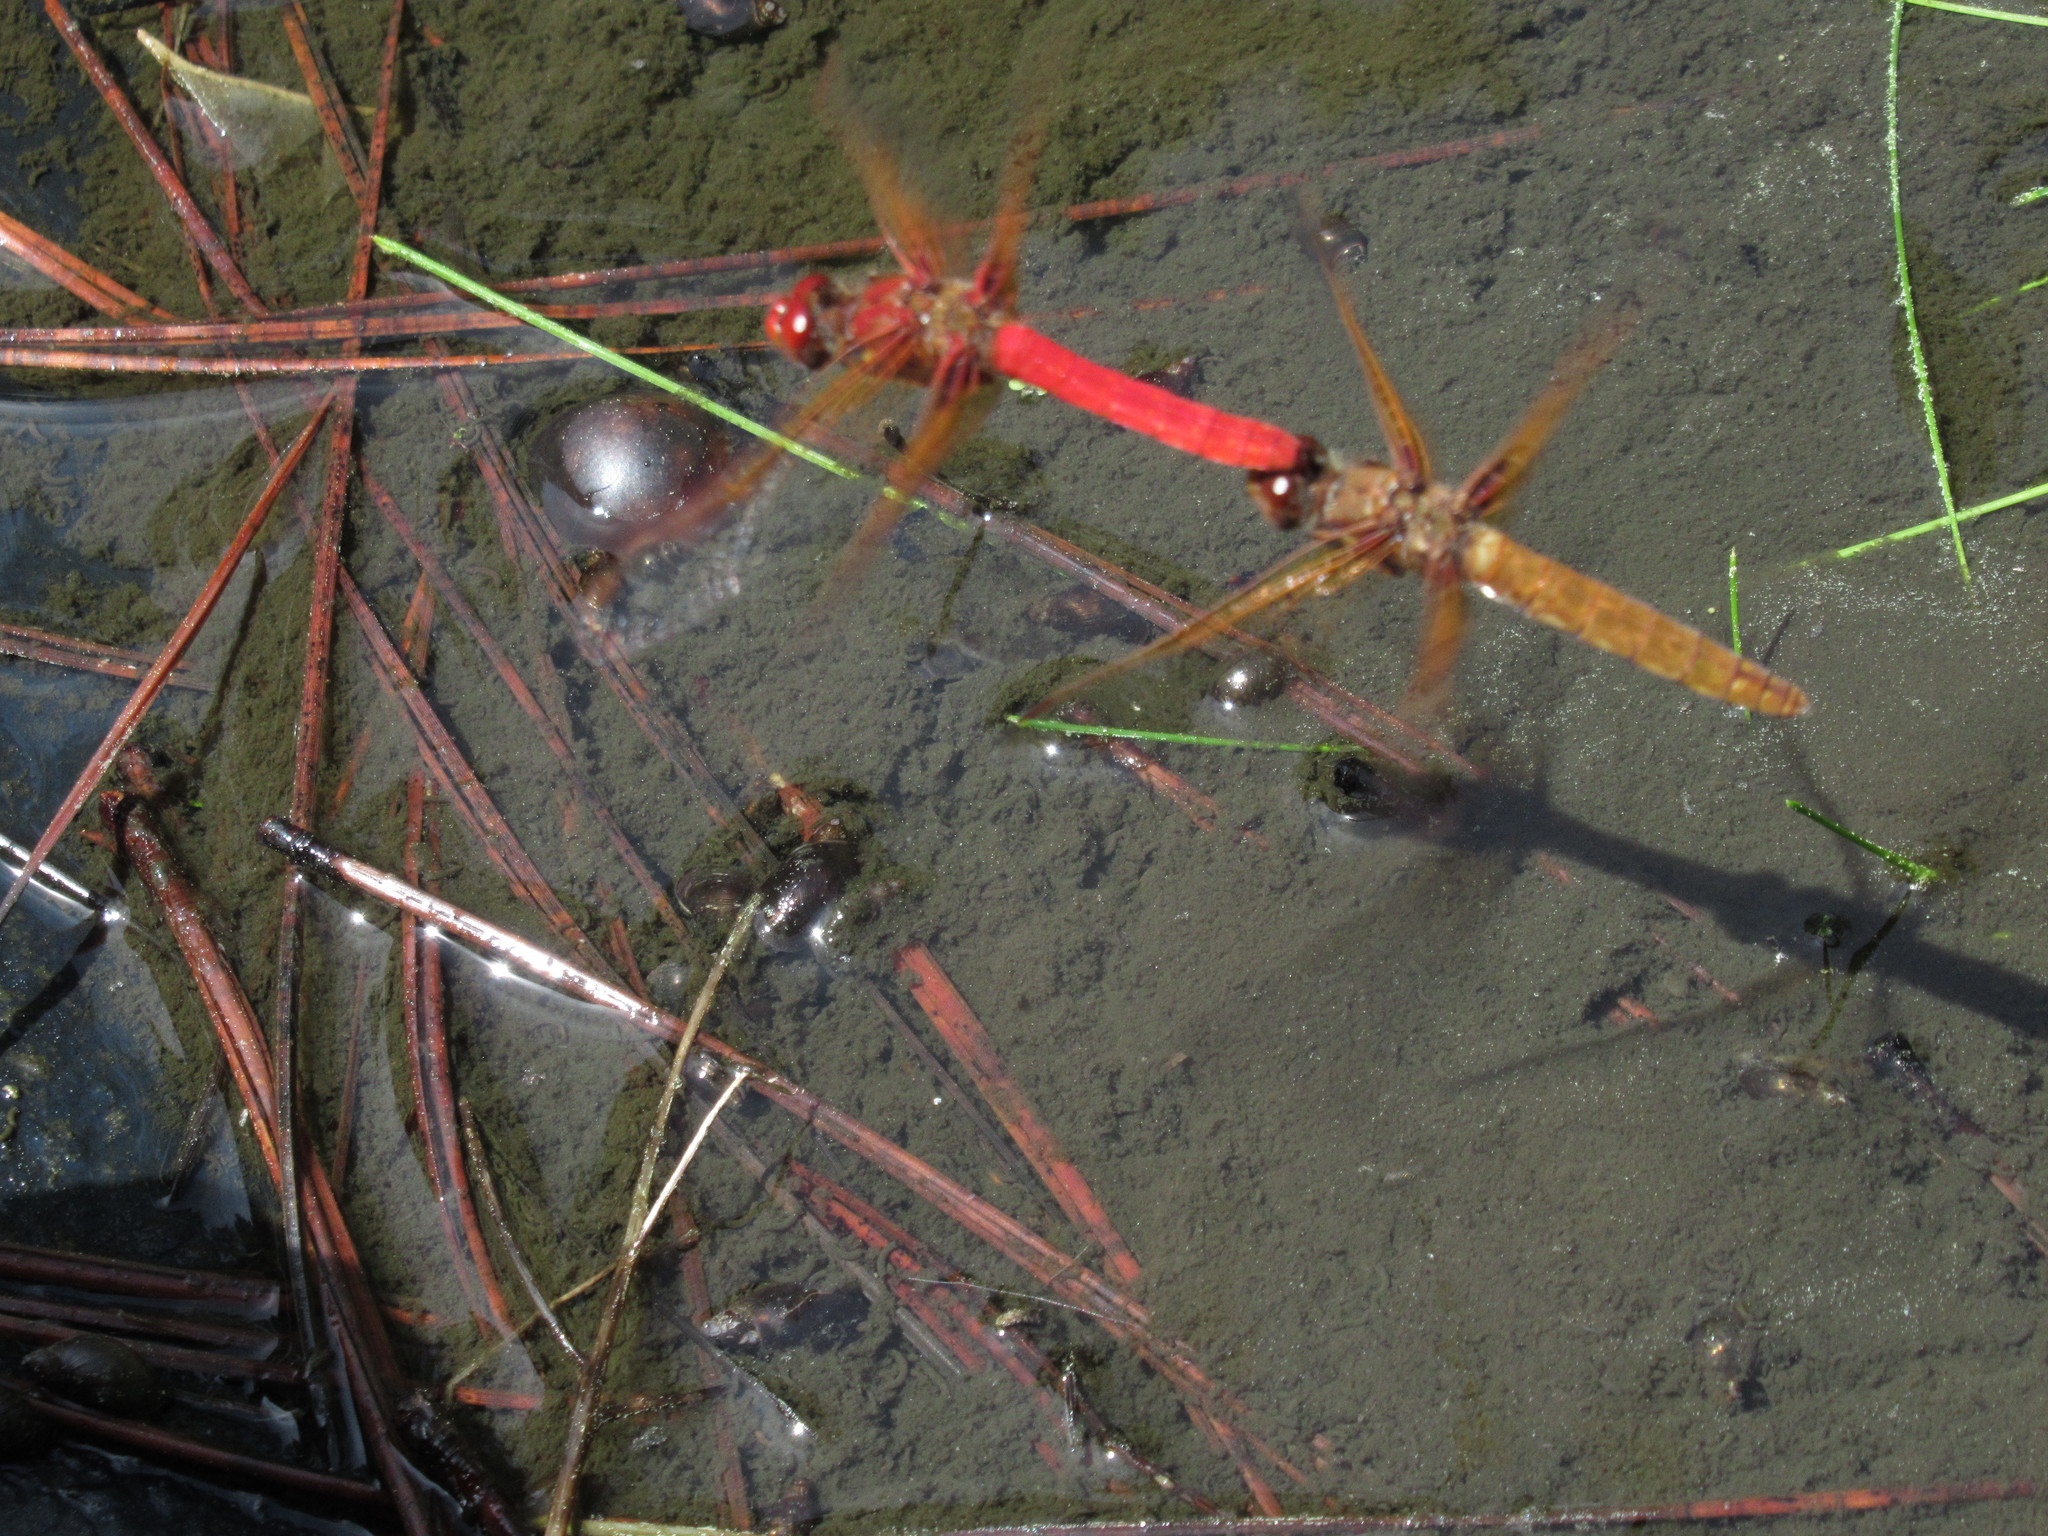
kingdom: Animalia
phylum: Arthropoda
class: Insecta
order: Odonata
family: Libellulidae
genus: Sympetrum
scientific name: Sympetrum illotum
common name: Cardinal meadowhawk
